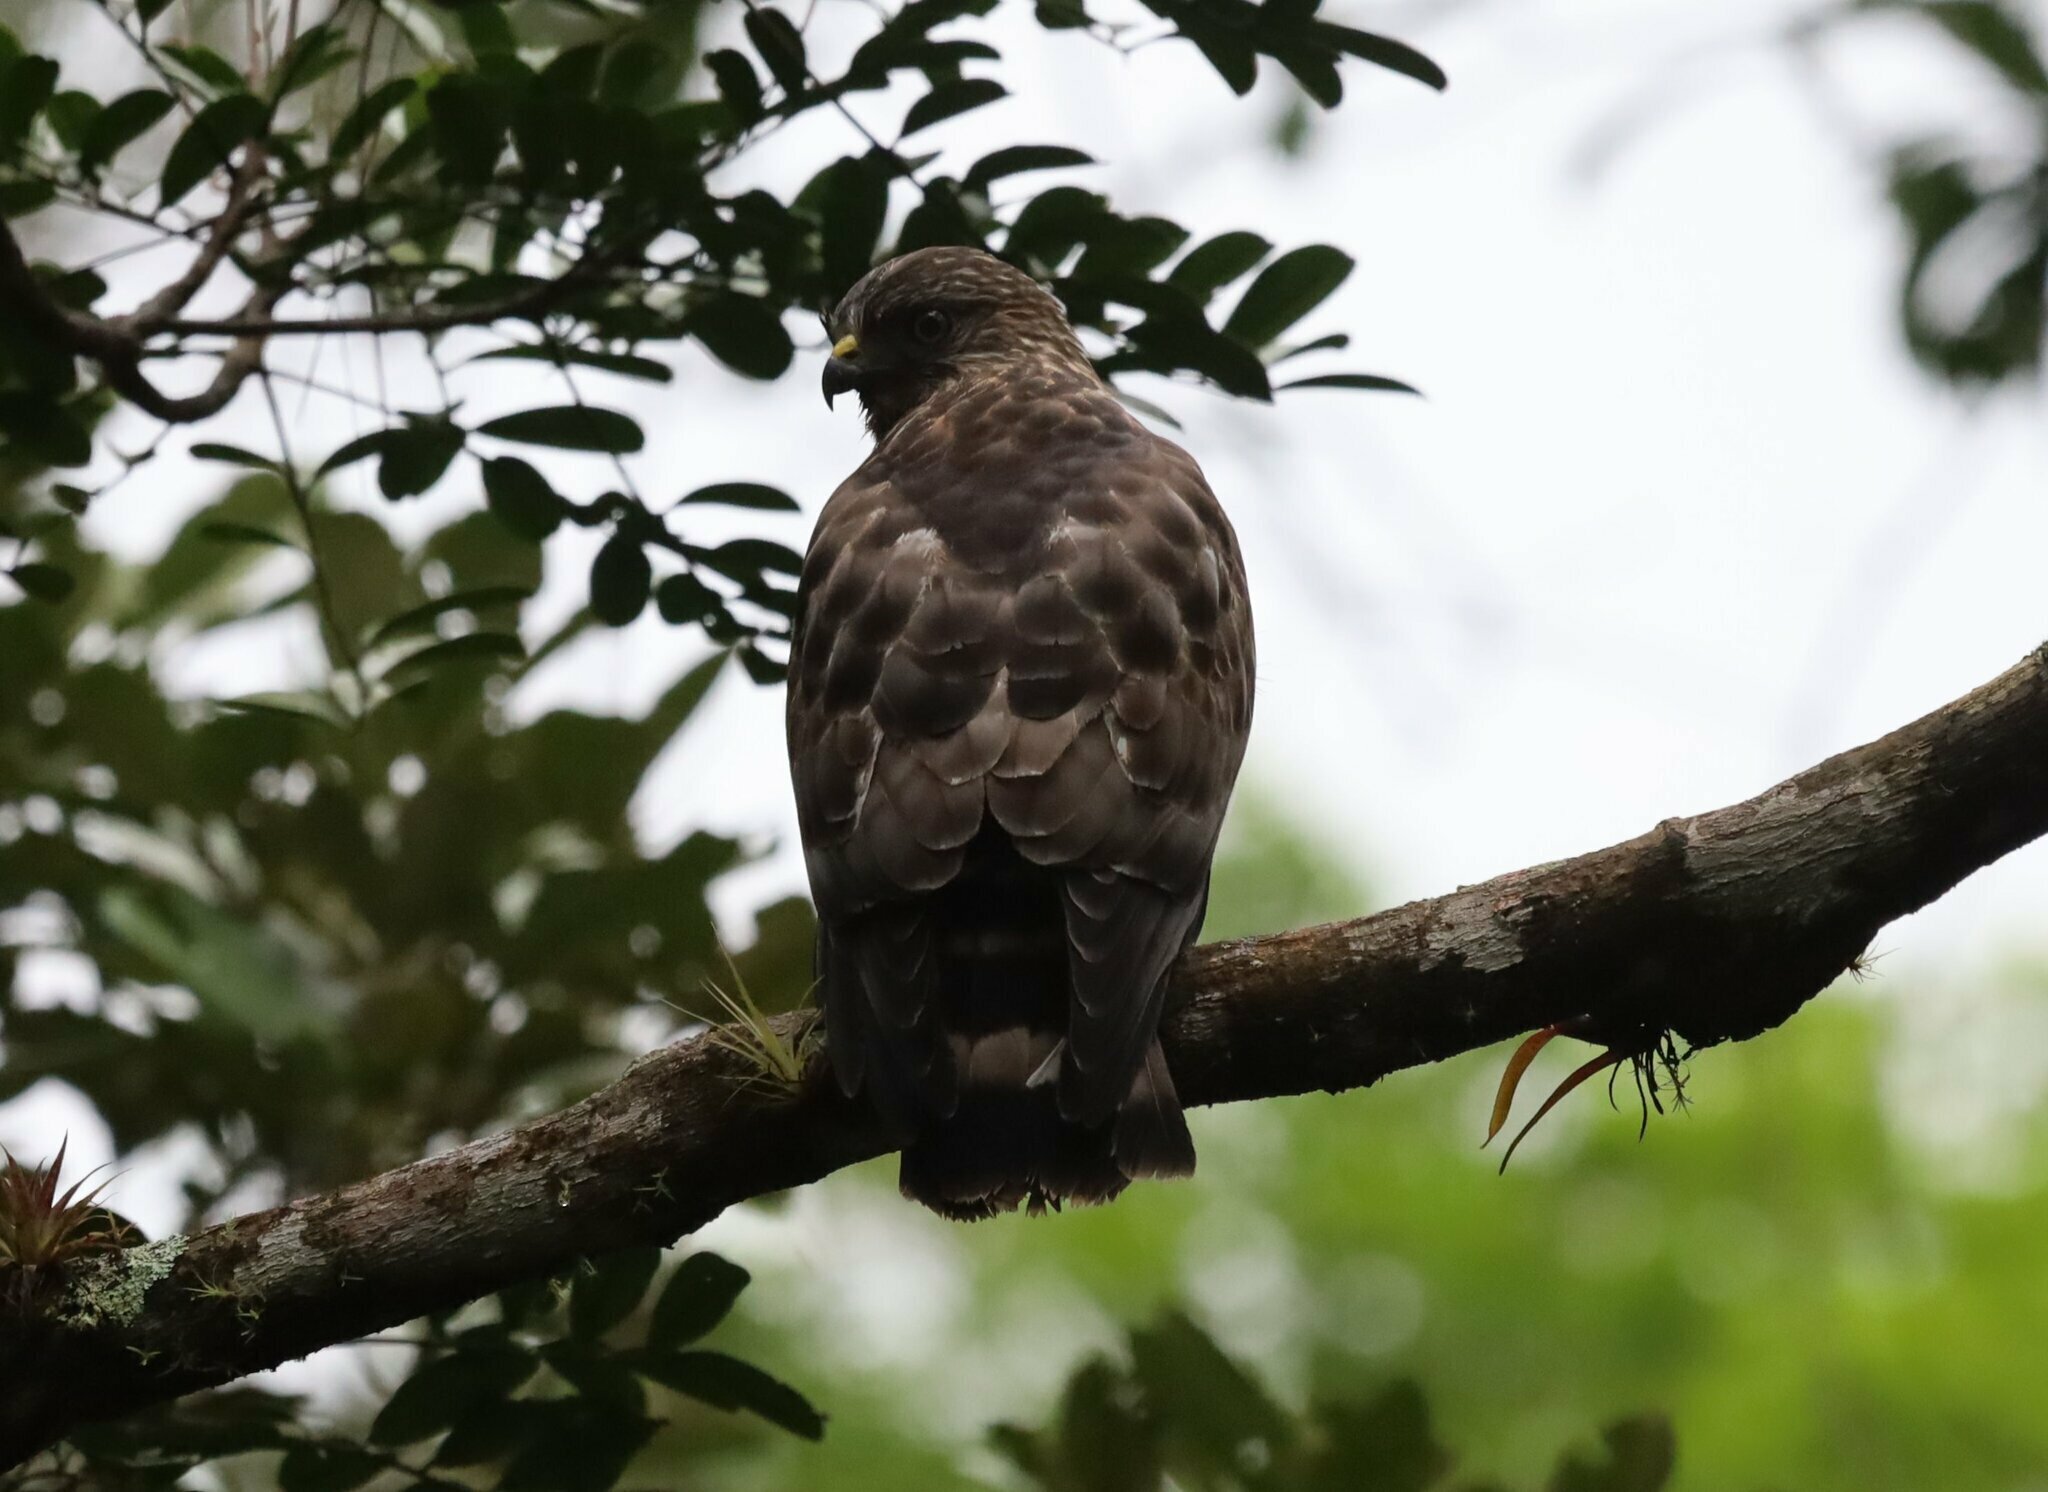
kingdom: Animalia
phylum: Chordata
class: Aves
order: Accipitriformes
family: Accipitridae
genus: Buteo
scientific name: Buteo platypterus
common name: Broad-winged hawk
